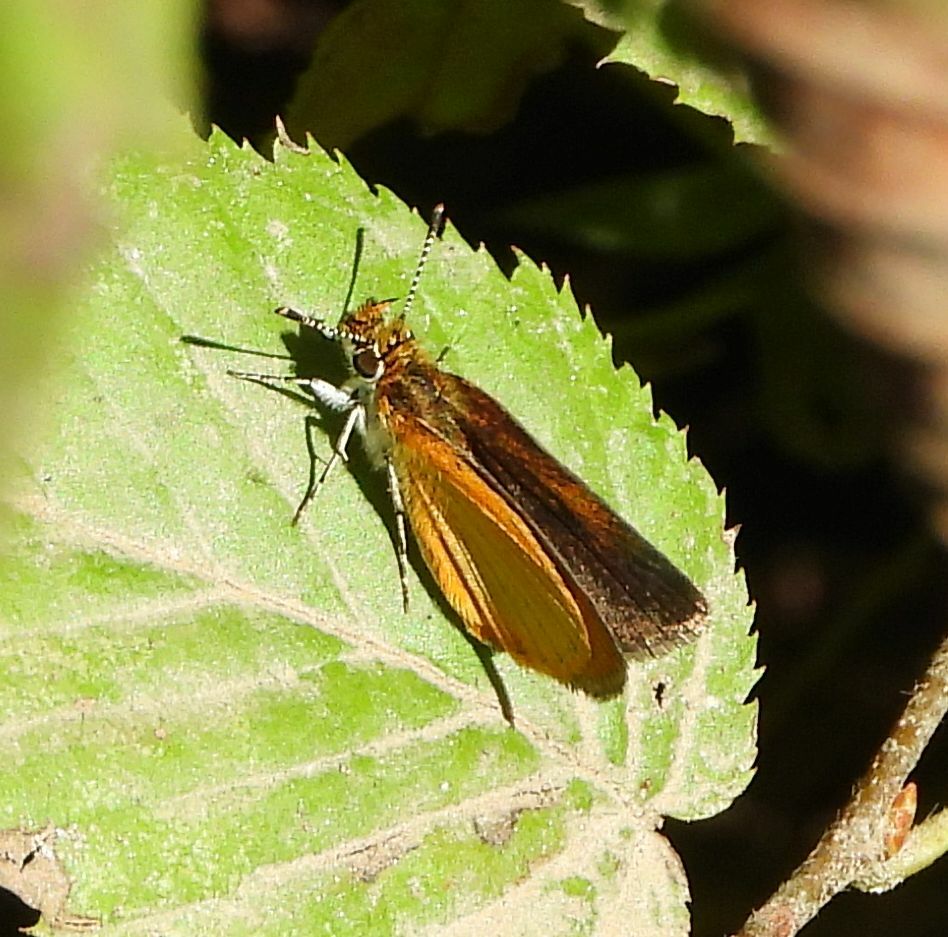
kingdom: Animalia
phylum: Arthropoda
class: Insecta
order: Lepidoptera
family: Hesperiidae
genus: Ancyloxypha
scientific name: Ancyloxypha numitor
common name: Least skipper
